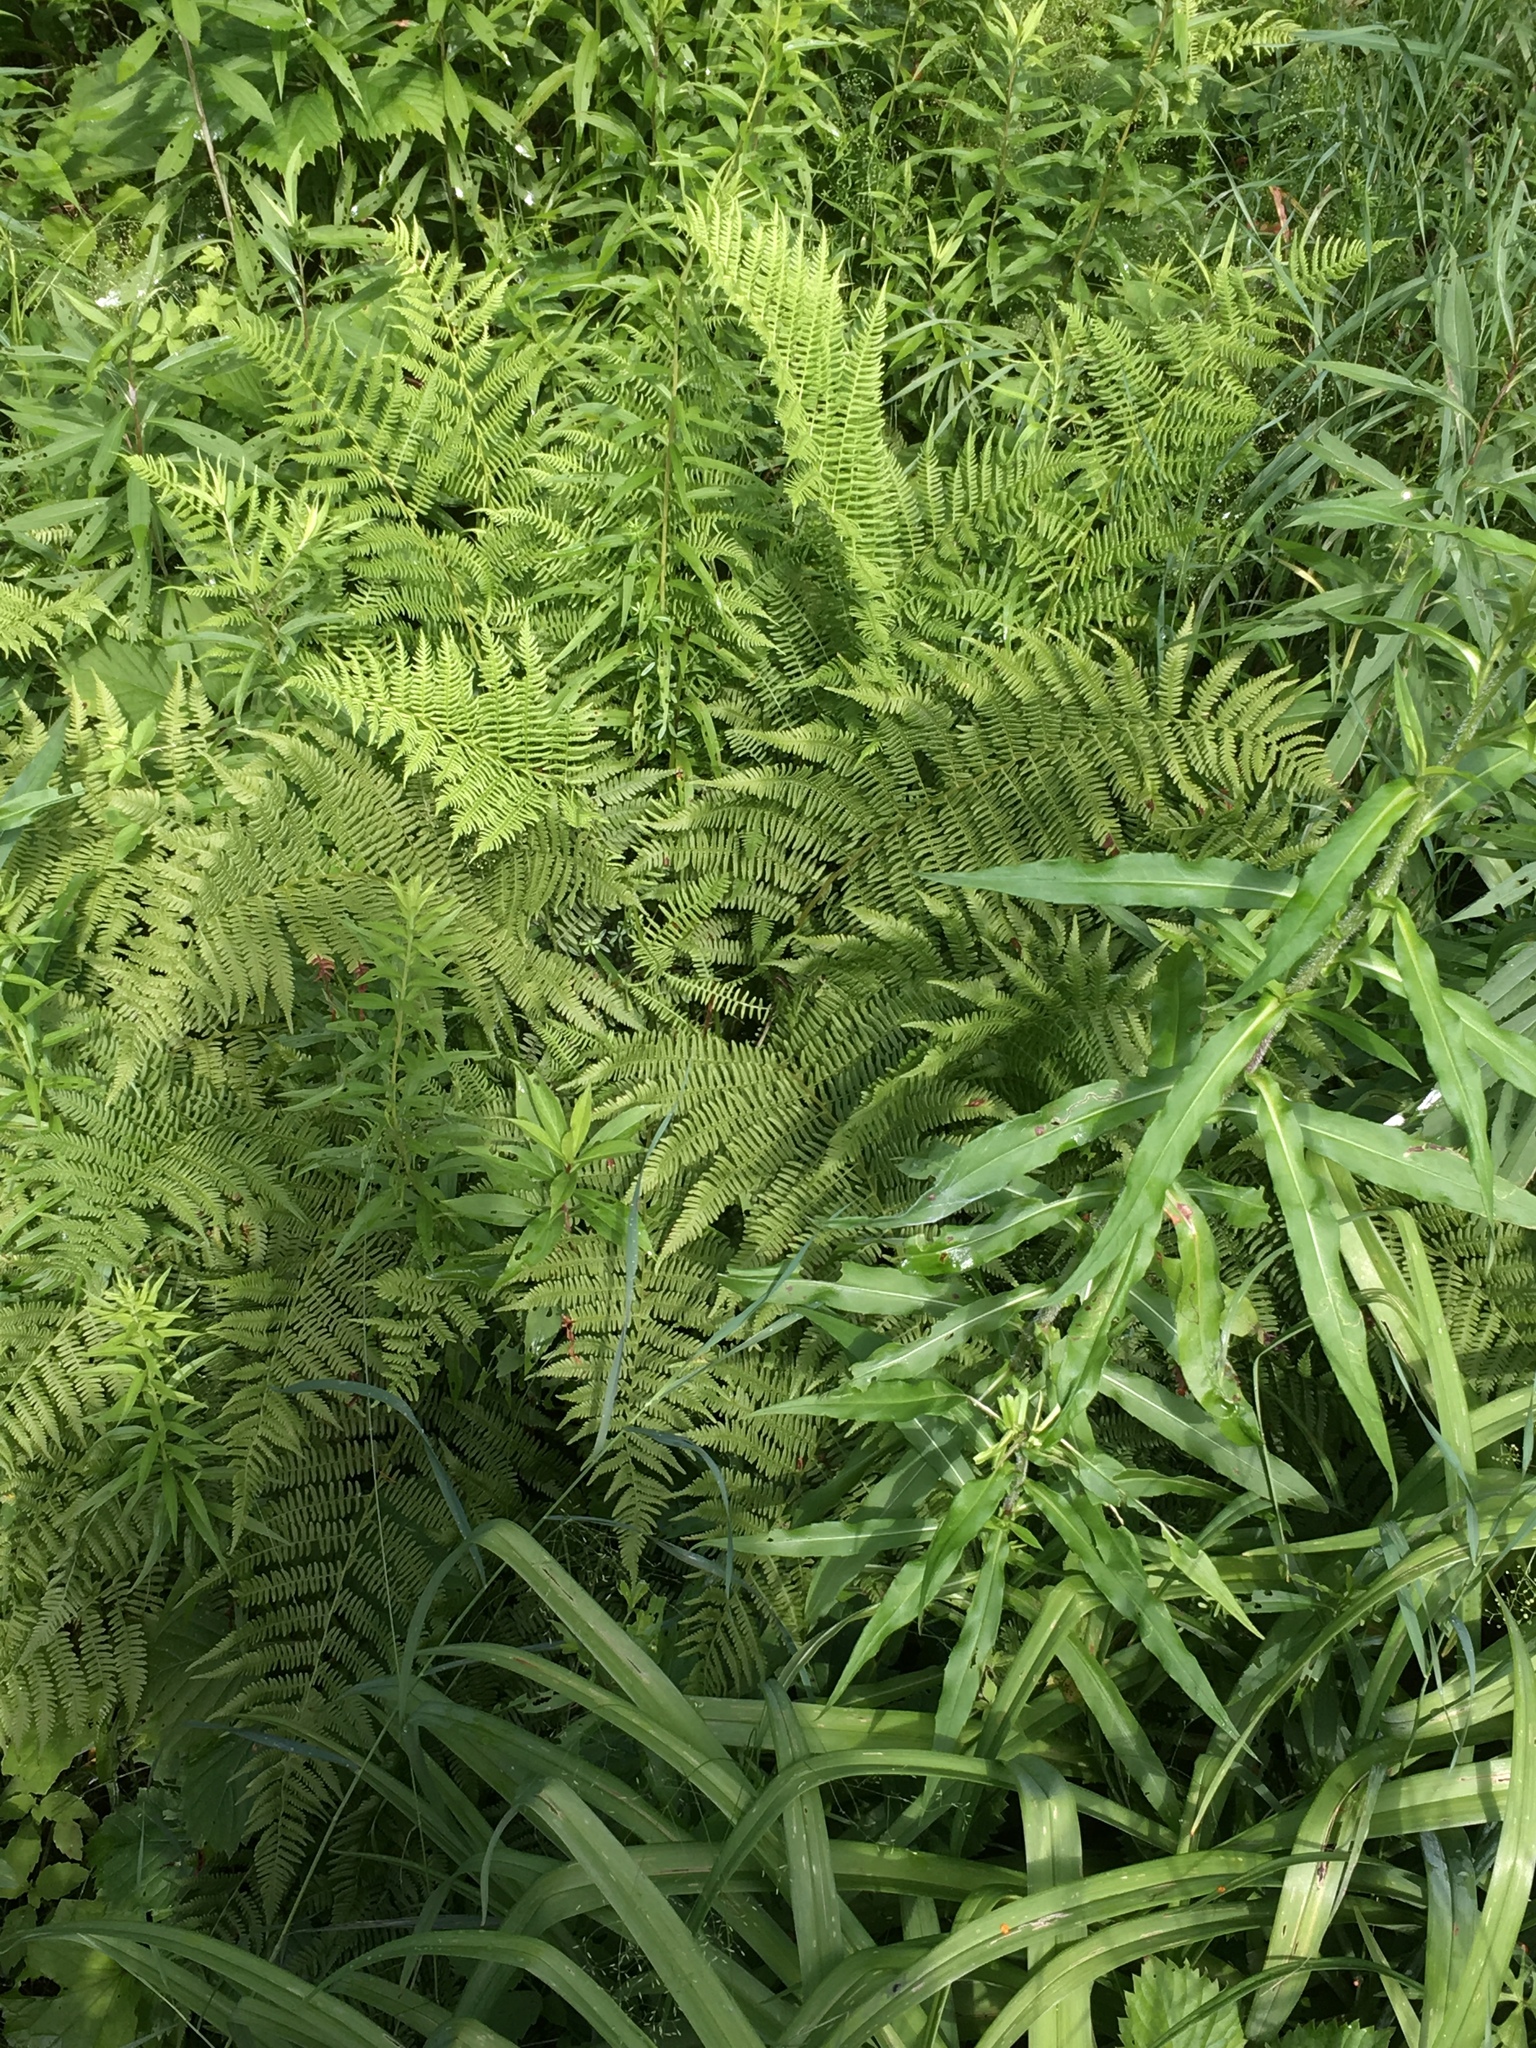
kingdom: Plantae
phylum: Tracheophyta
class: Polypodiopsida
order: Polypodiales
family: Athyriaceae
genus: Athyrium
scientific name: Athyrium angustum
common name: Northern lady fern
